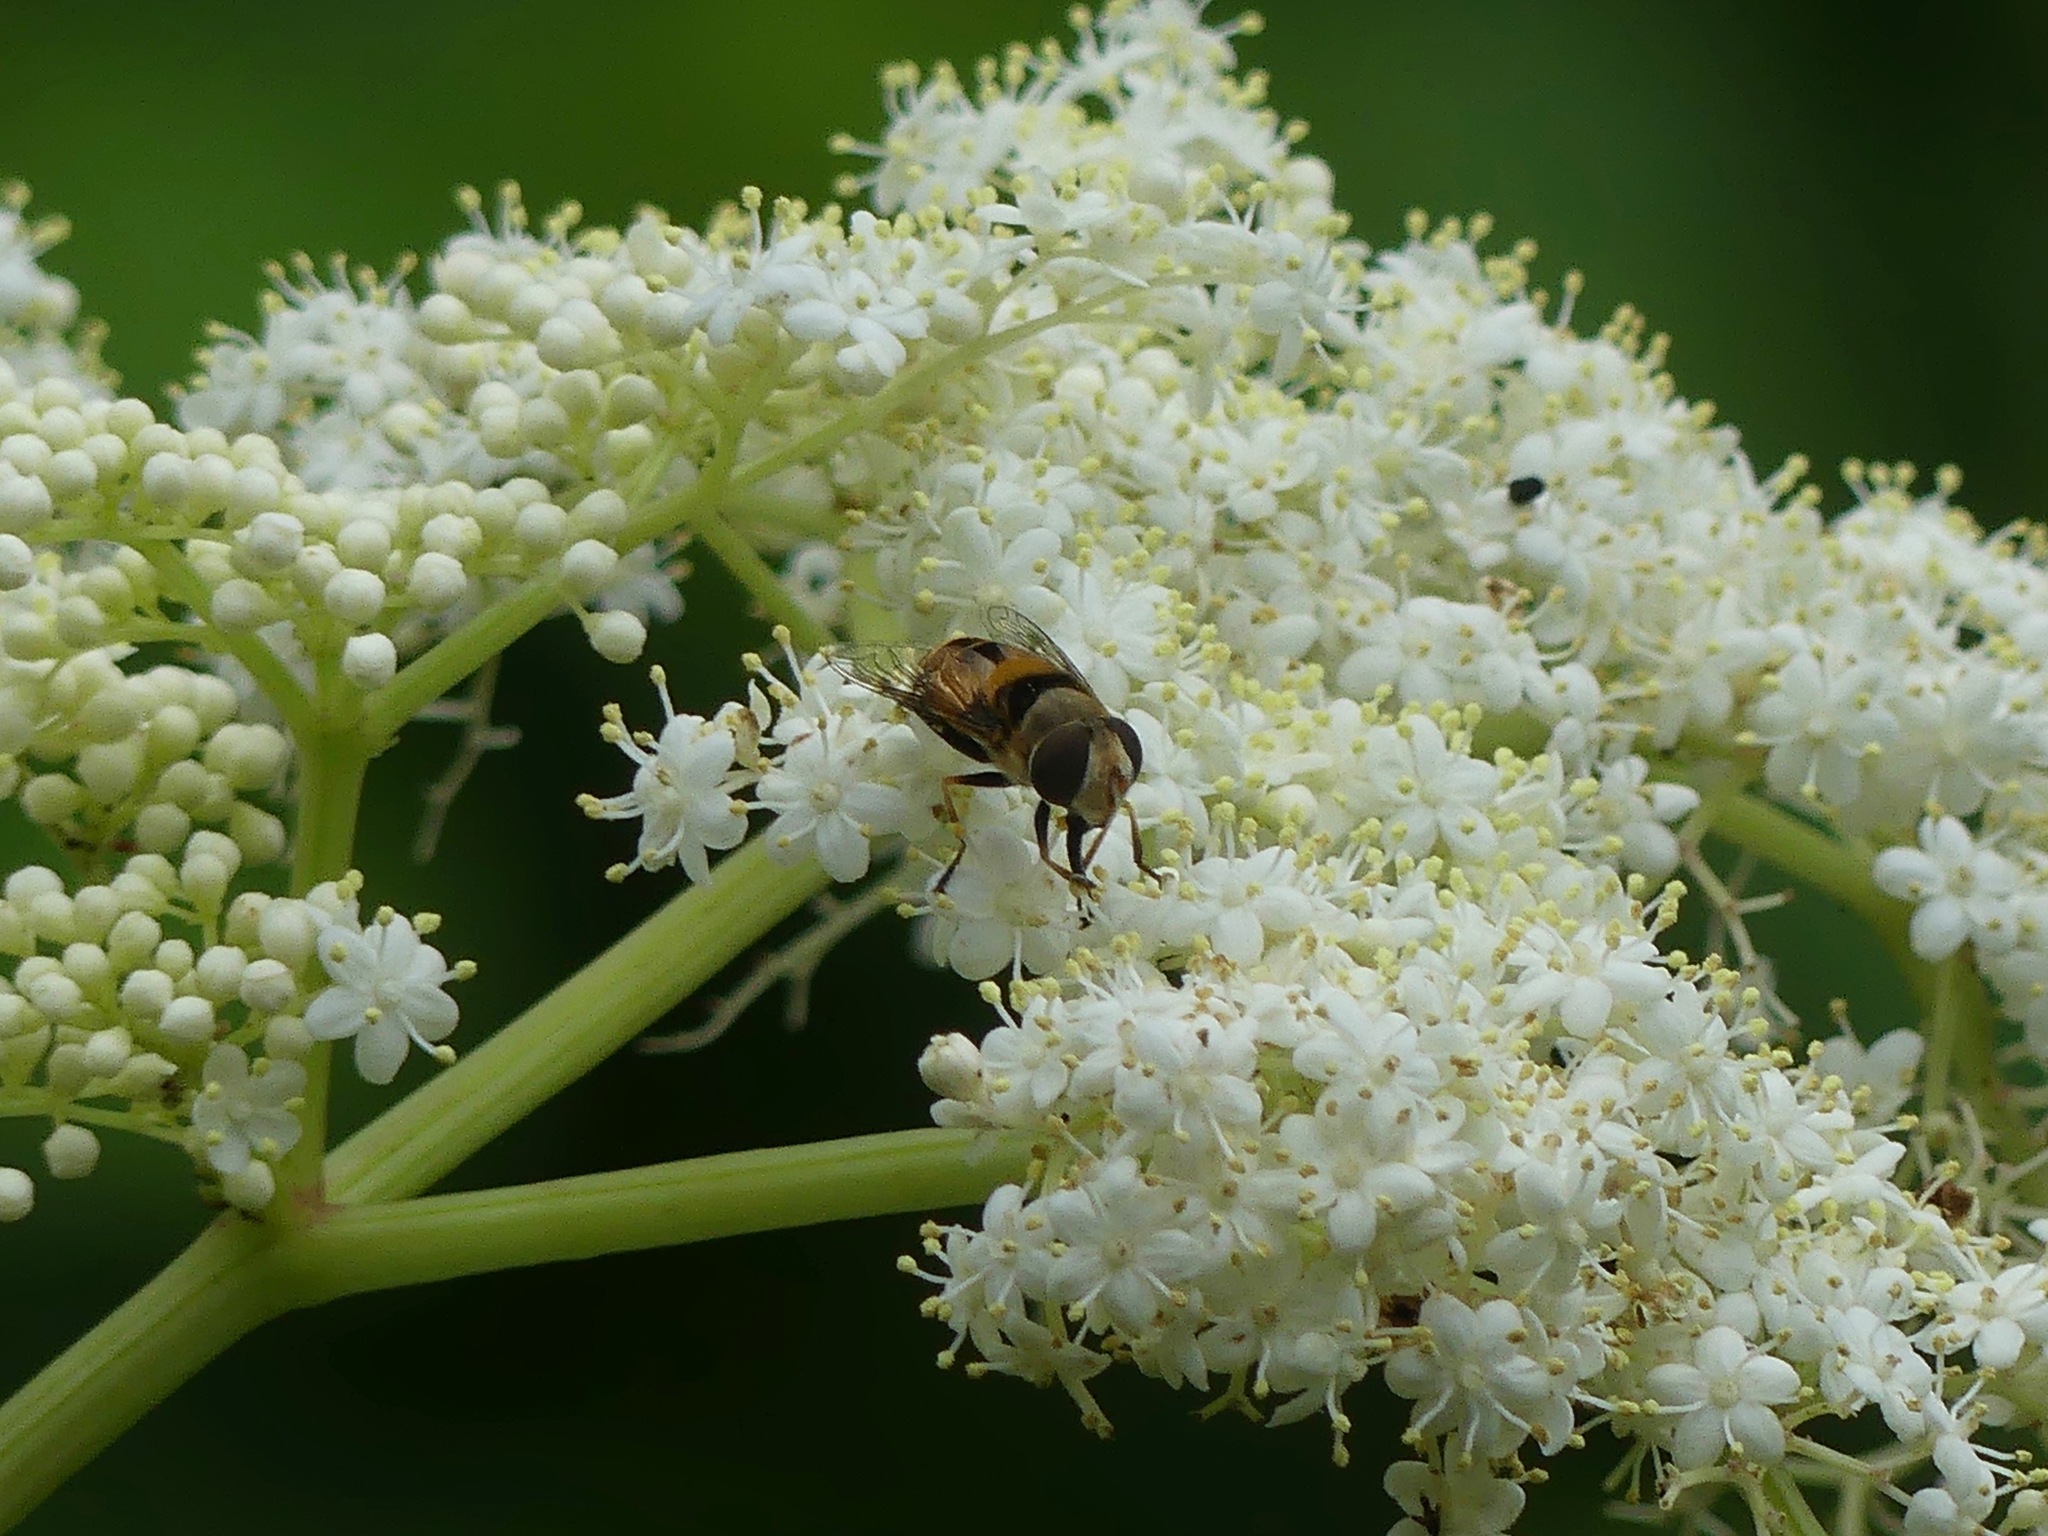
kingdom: Animalia
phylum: Arthropoda
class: Insecta
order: Diptera
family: Syrphidae
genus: Palpada
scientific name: Palpada pusilla
